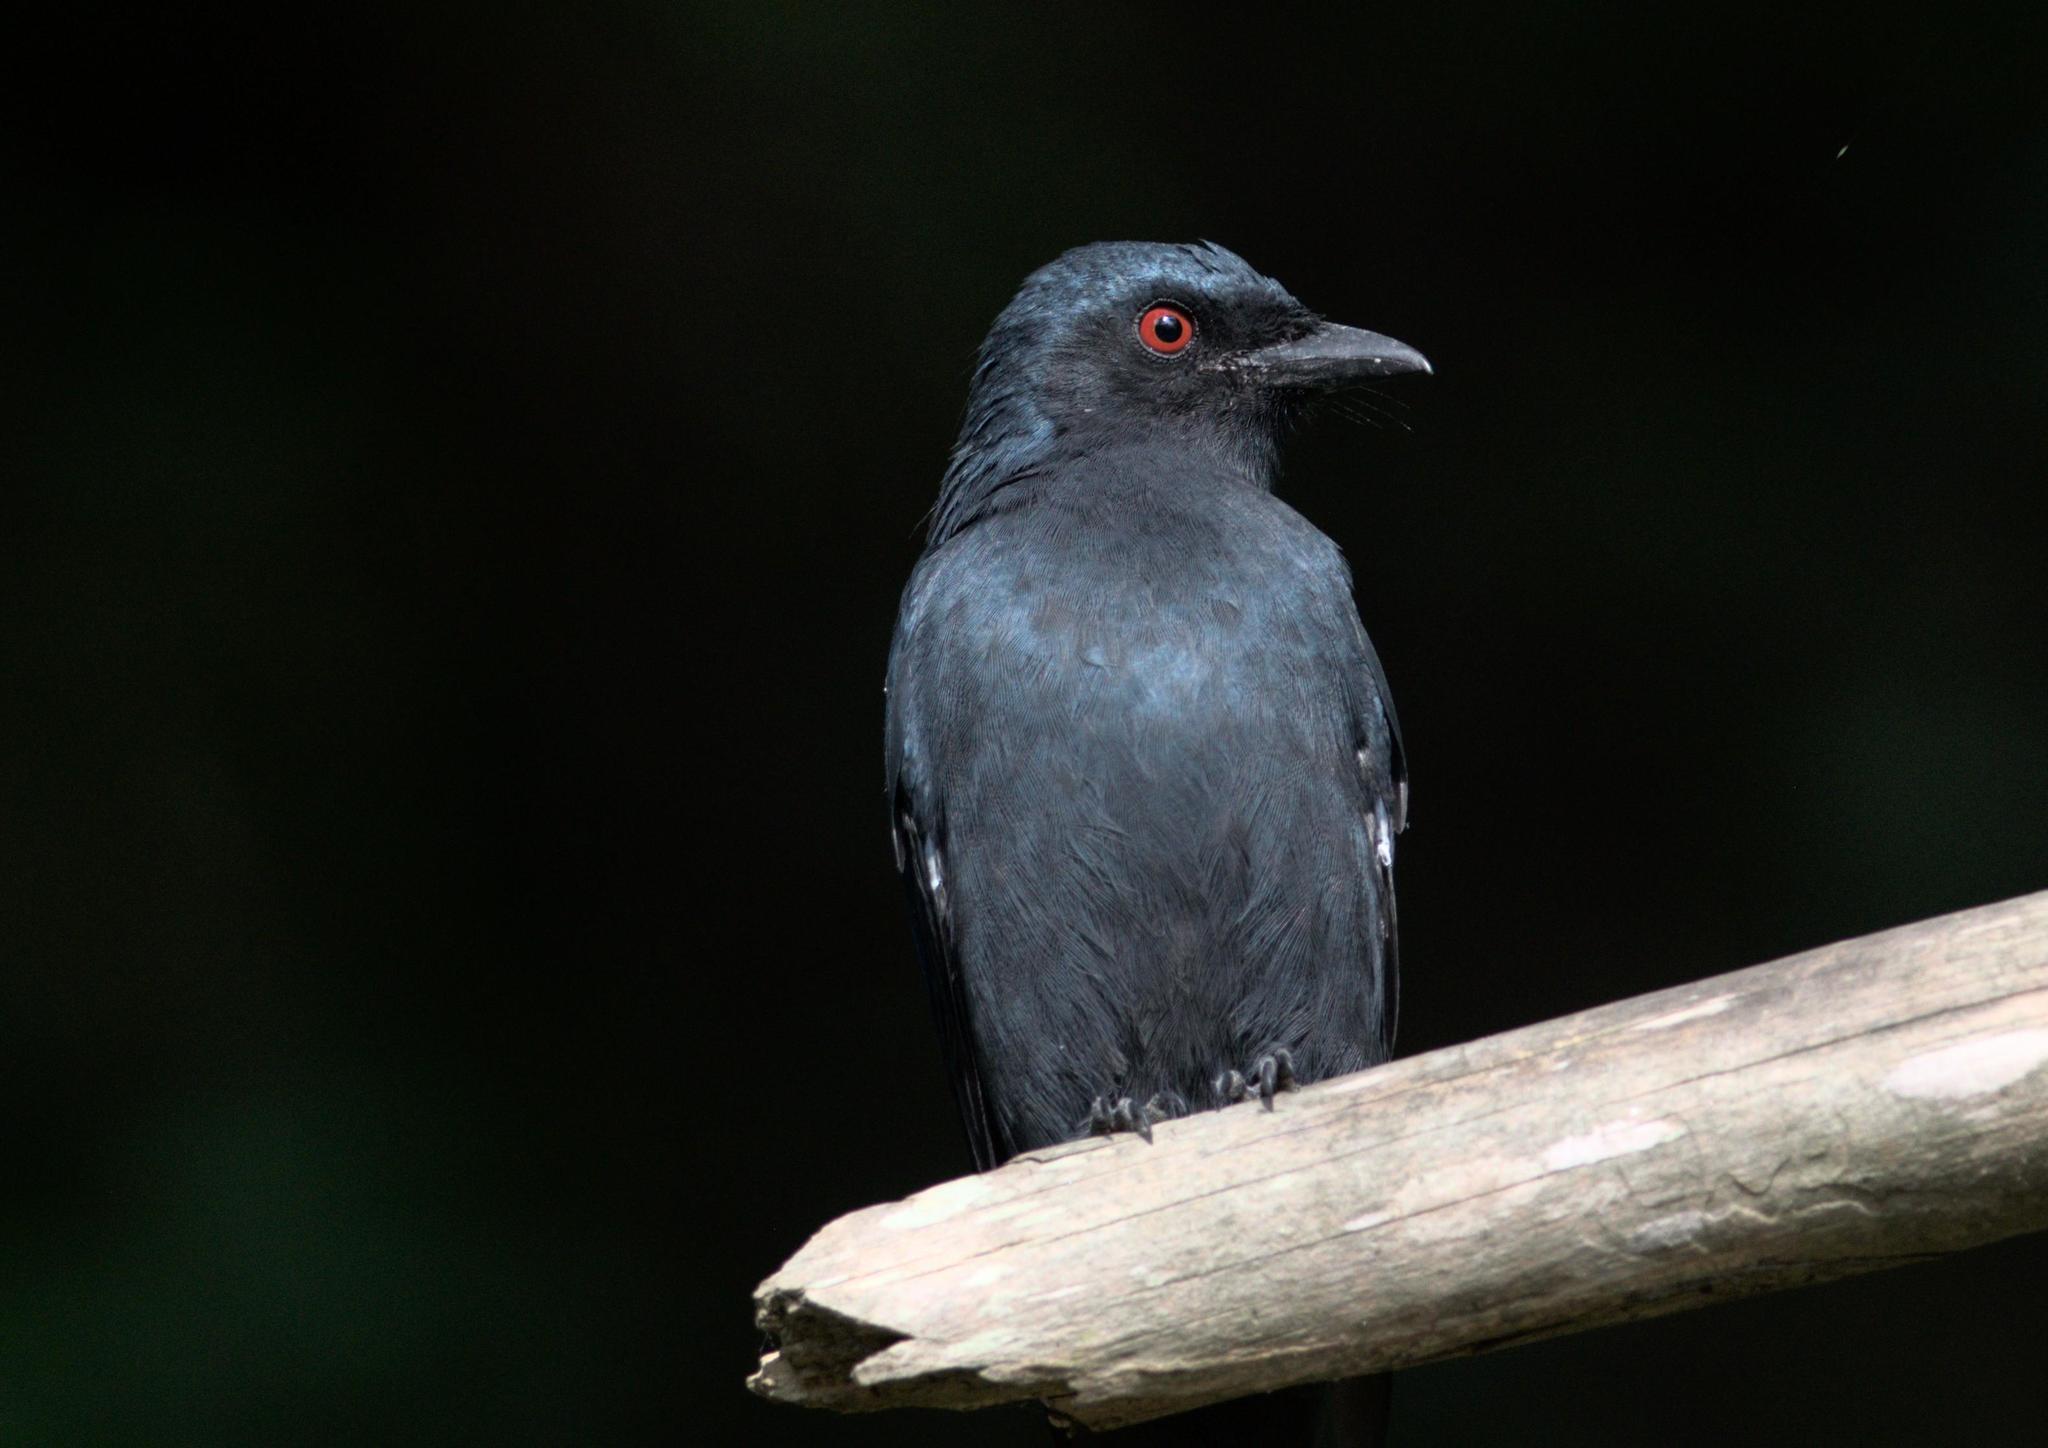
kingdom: Animalia
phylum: Chordata
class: Aves
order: Passeriformes
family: Dicruridae
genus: Dicrurus
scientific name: Dicrurus leucophaeus
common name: Ashy drongo
